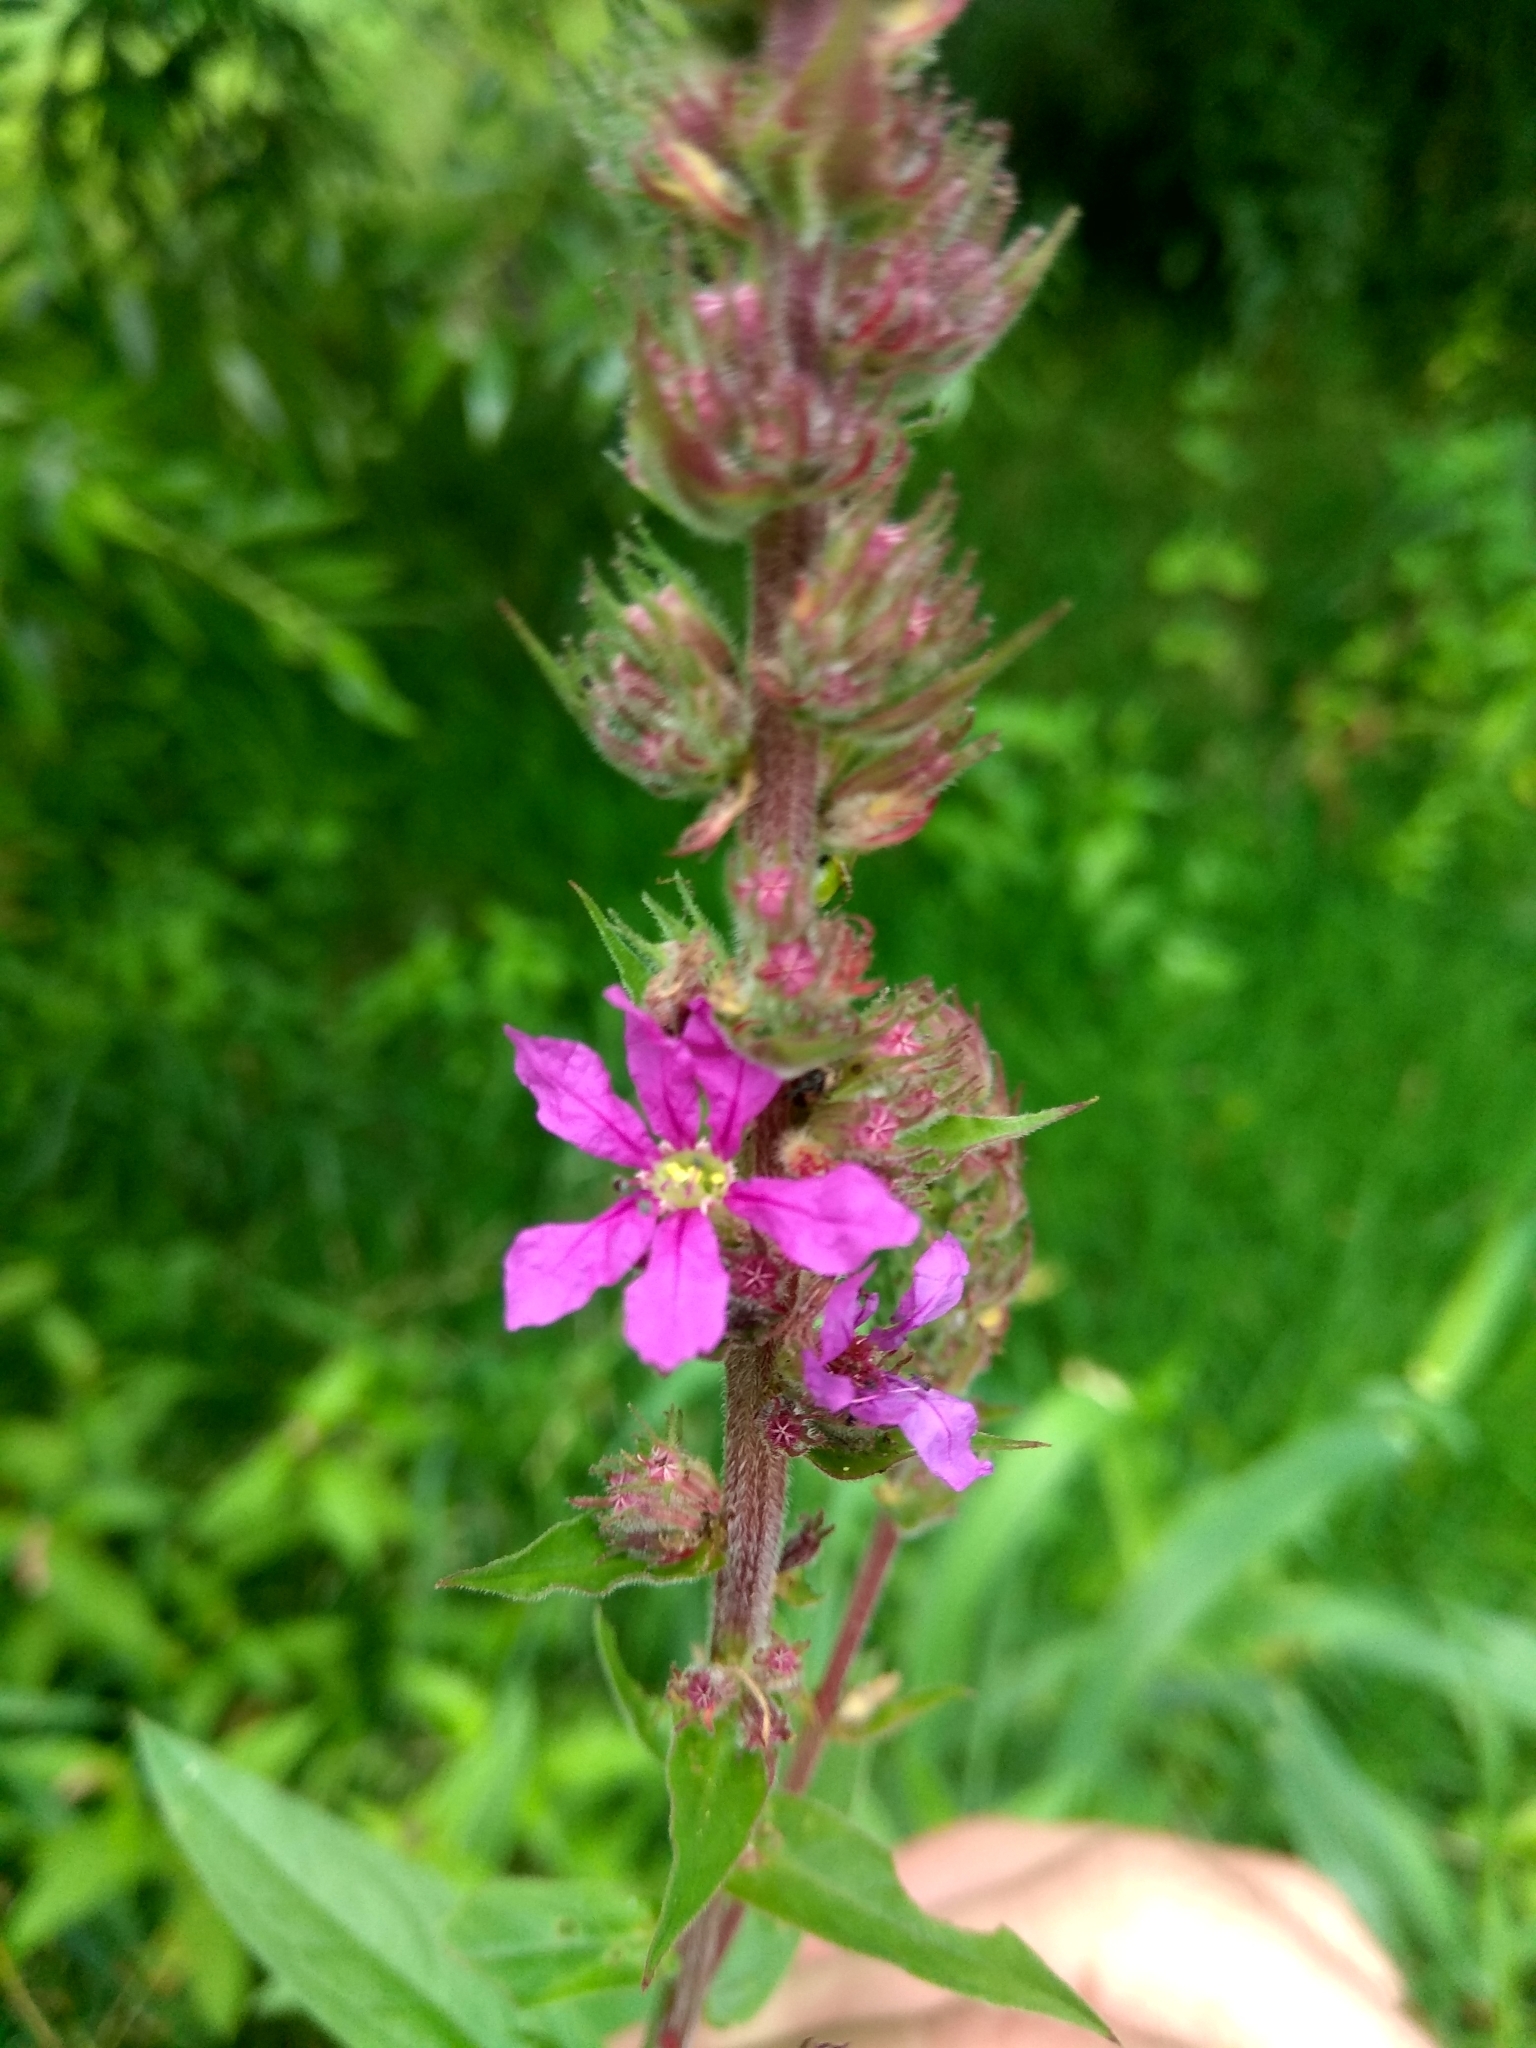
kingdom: Plantae
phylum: Tracheophyta
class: Magnoliopsida
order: Myrtales
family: Lythraceae
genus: Lythrum
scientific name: Lythrum salicaria
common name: Purple loosestrife
